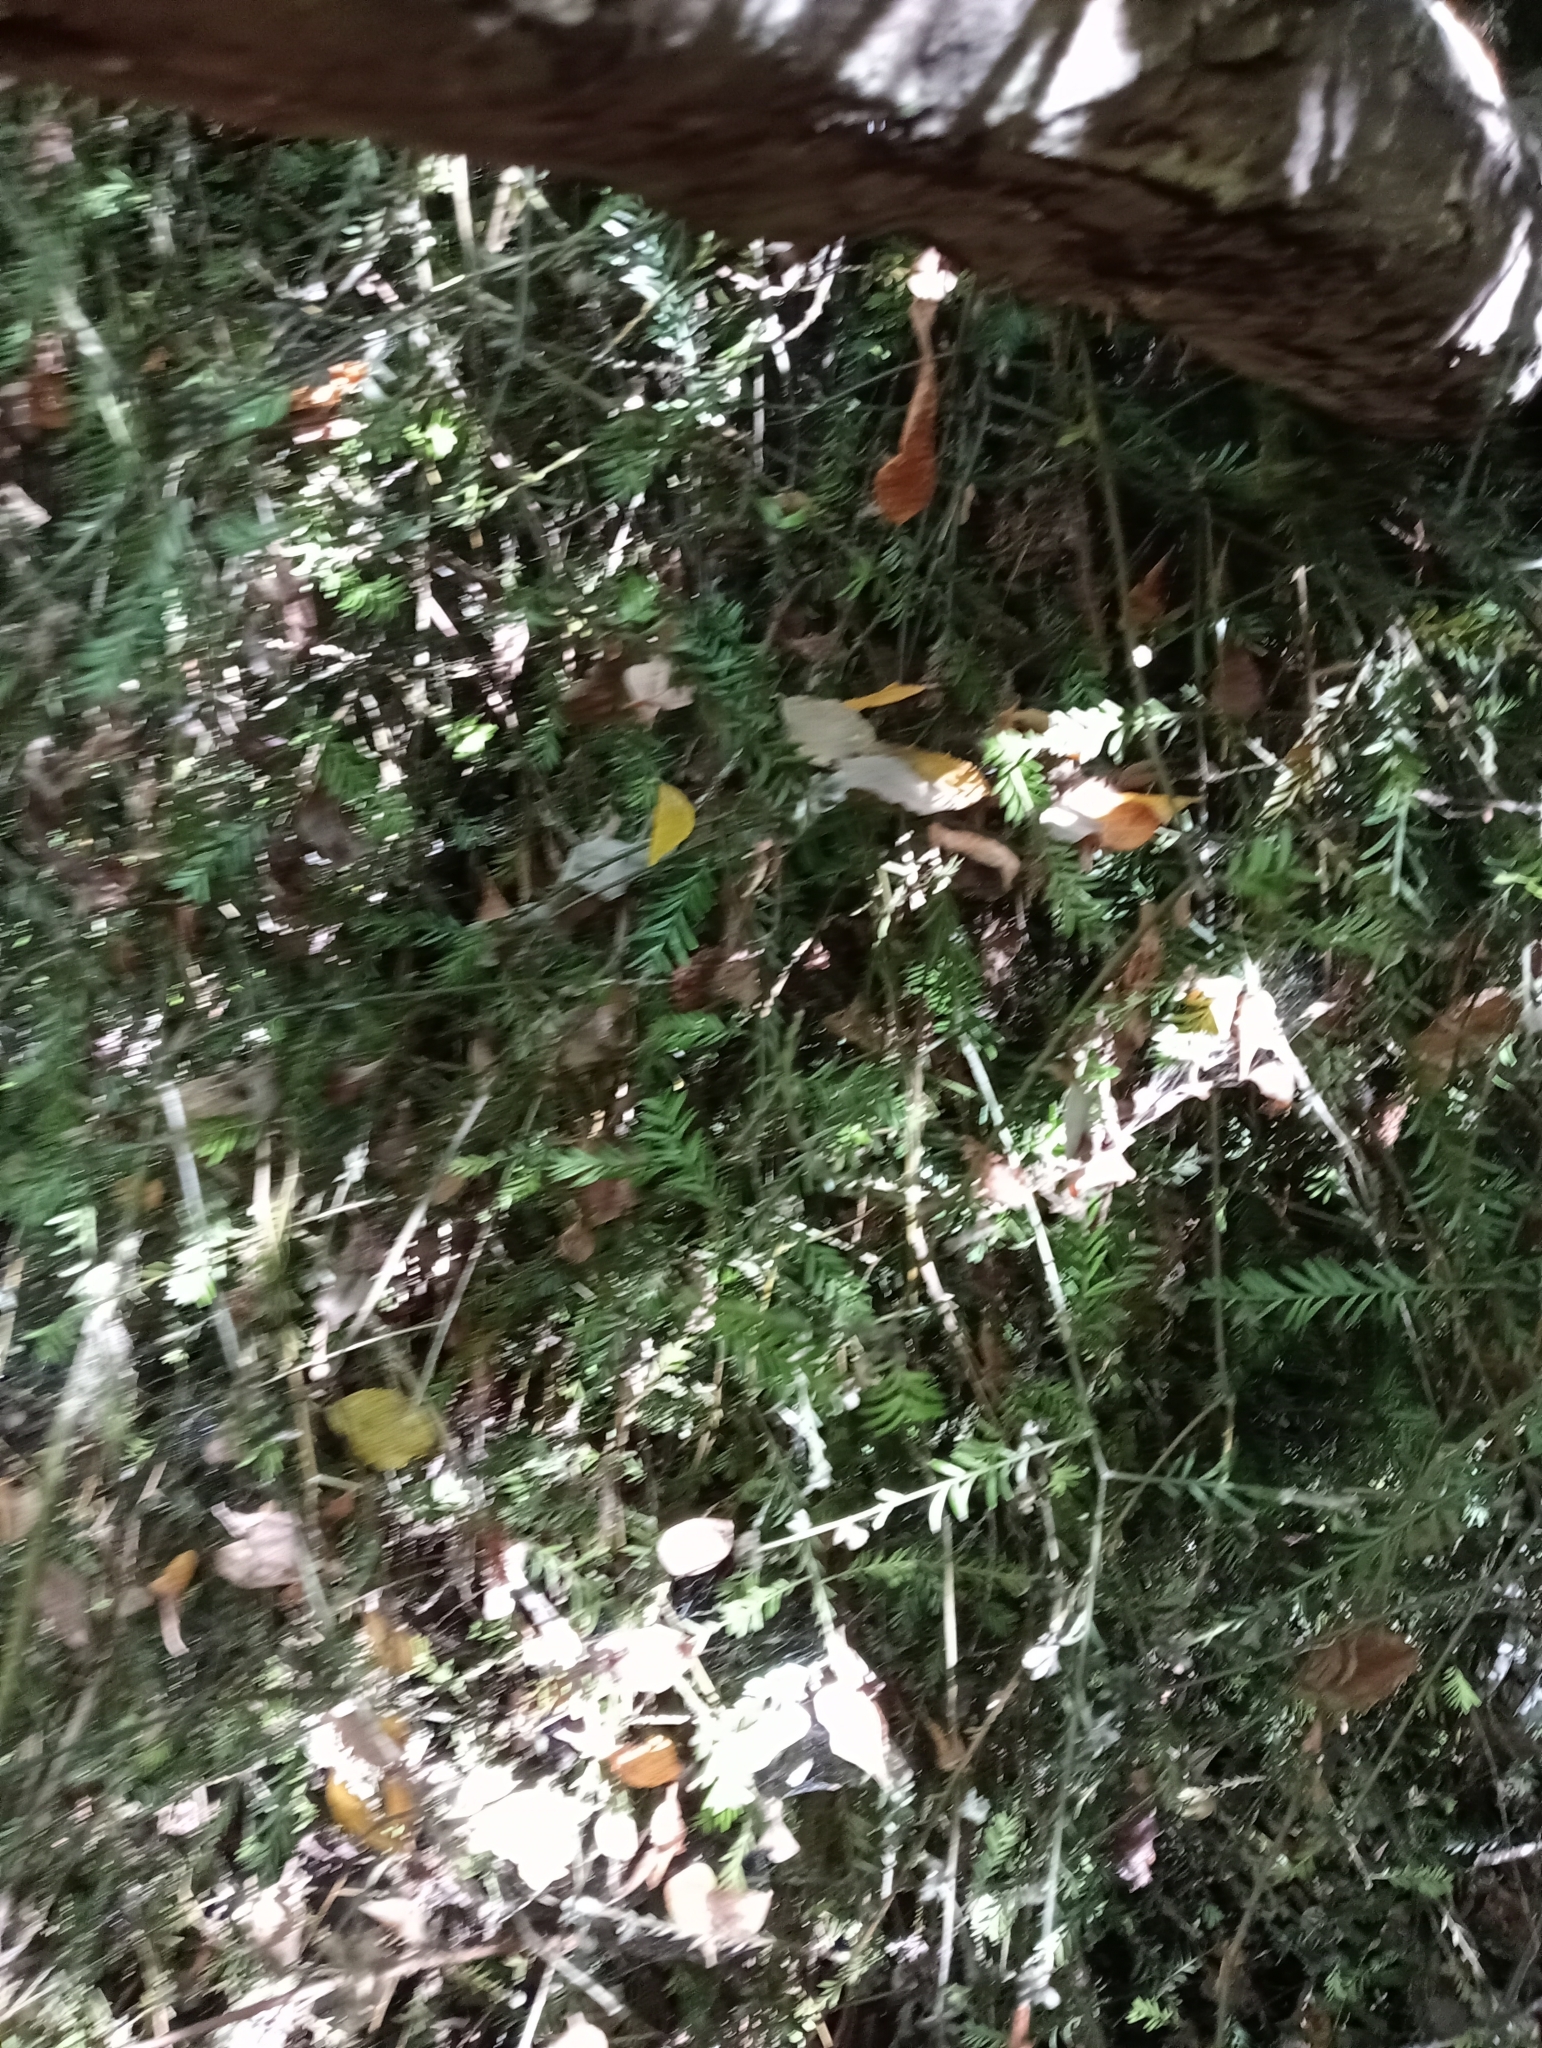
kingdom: Plantae
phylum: Tracheophyta
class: Pinopsida
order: Pinales
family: Podocarpaceae
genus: Prumnopitys
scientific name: Prumnopitys taxifolia
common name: Matai
